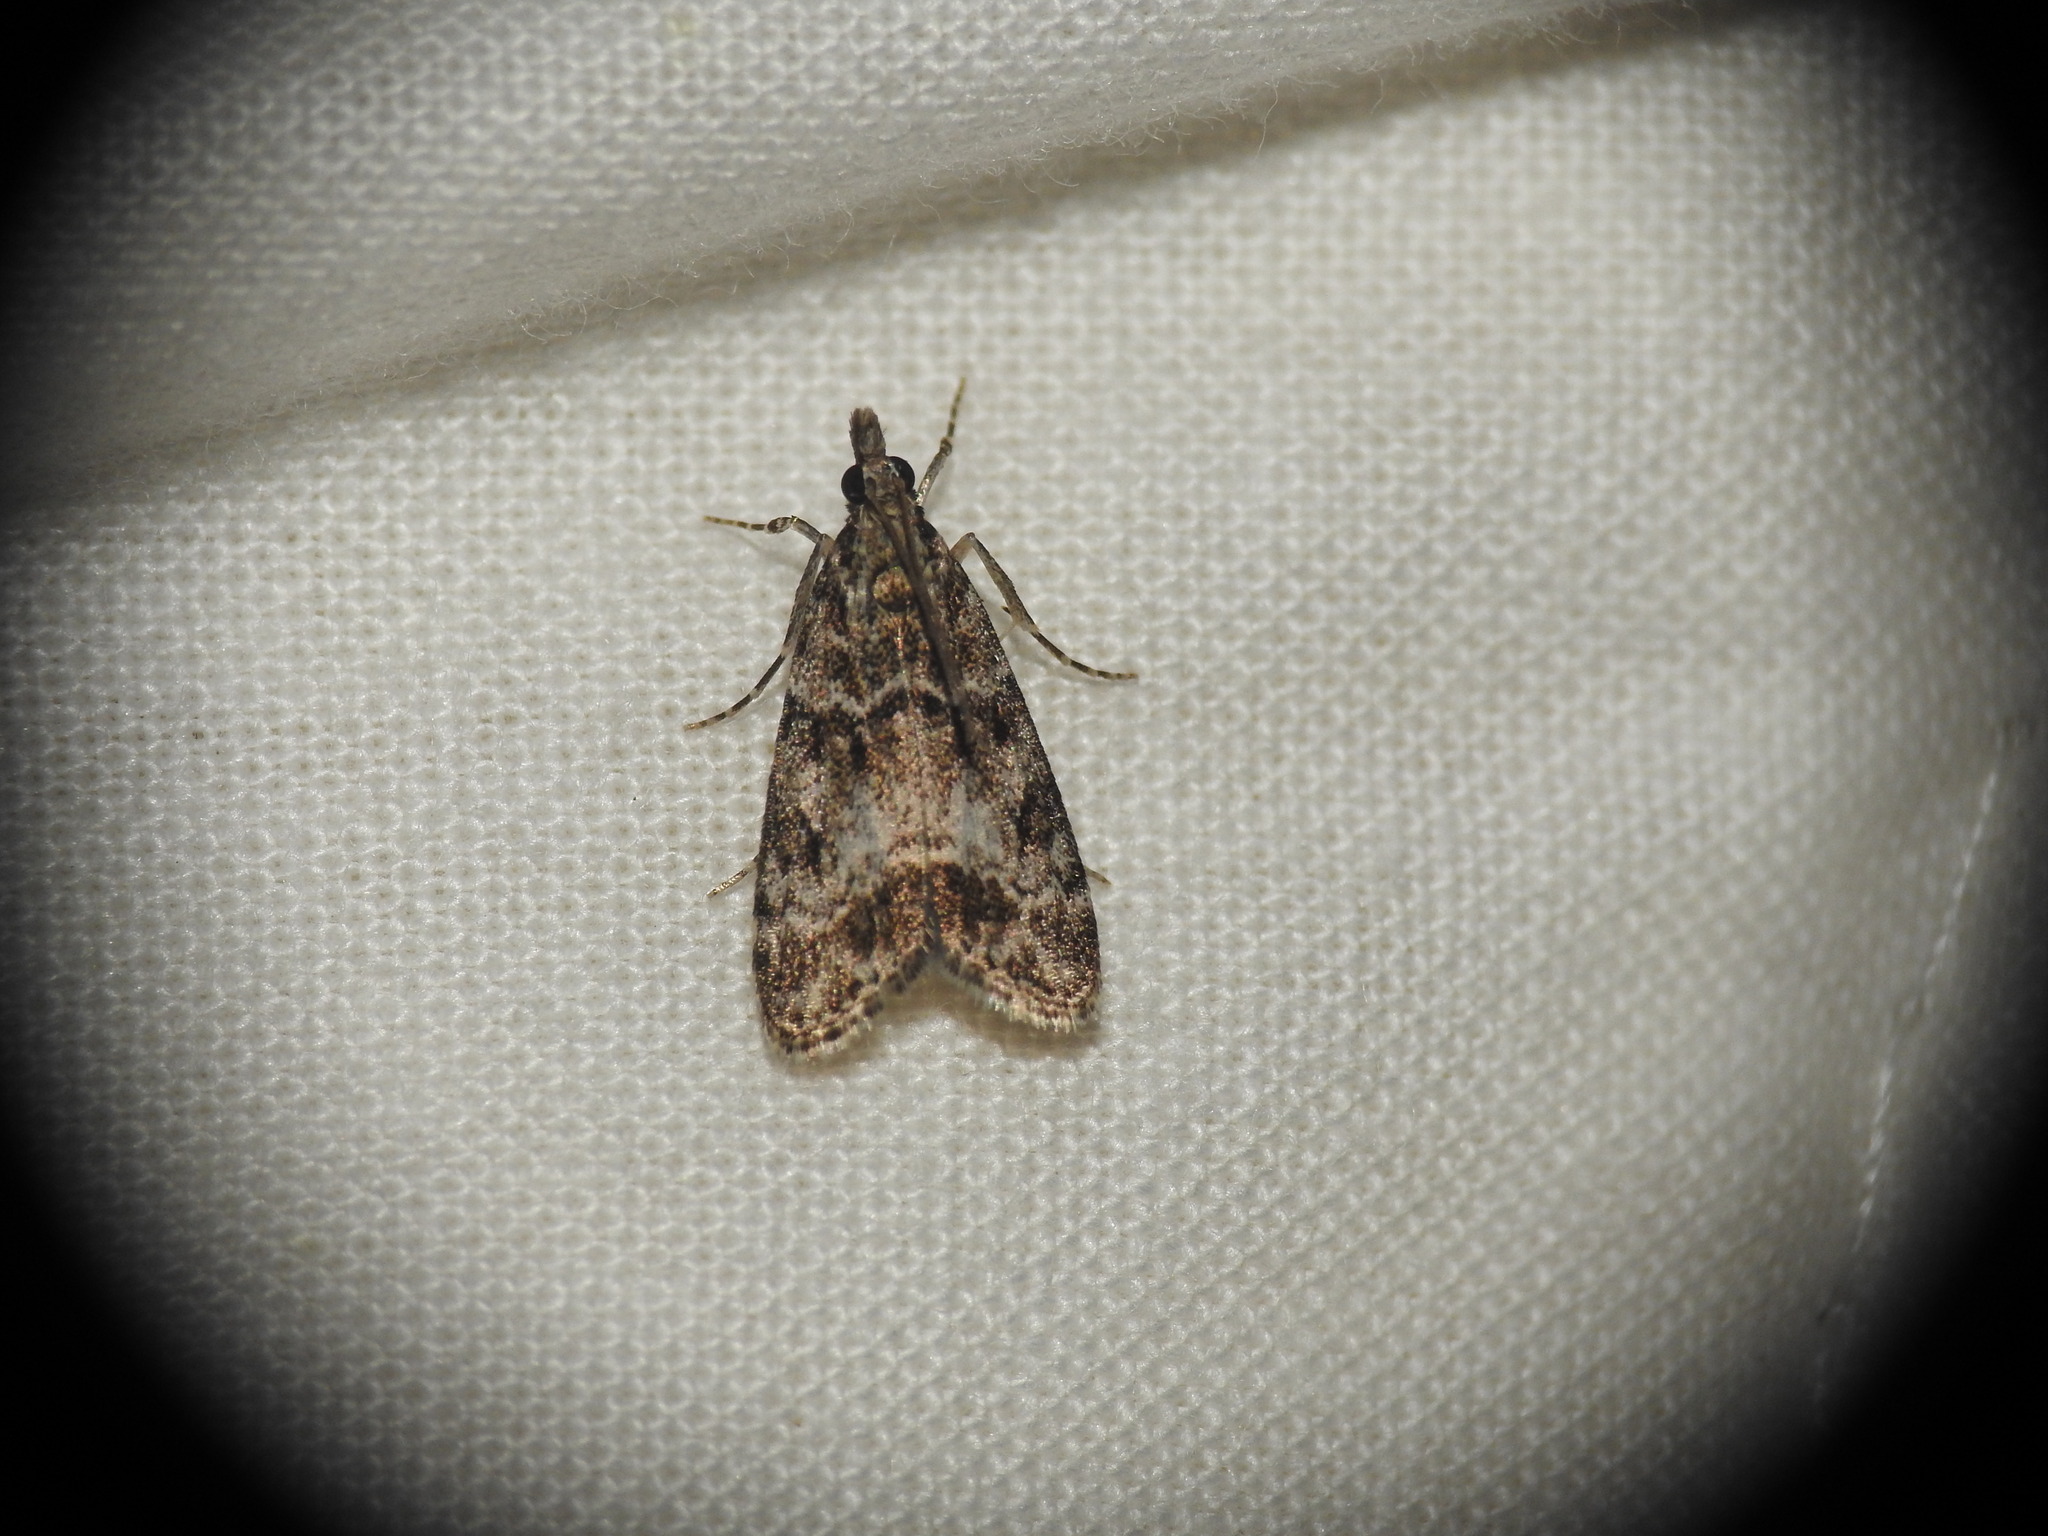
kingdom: Animalia
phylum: Arthropoda
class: Insecta
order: Lepidoptera
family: Crambidae
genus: Eudonia
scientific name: Eudonia mercurella
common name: Small grey
